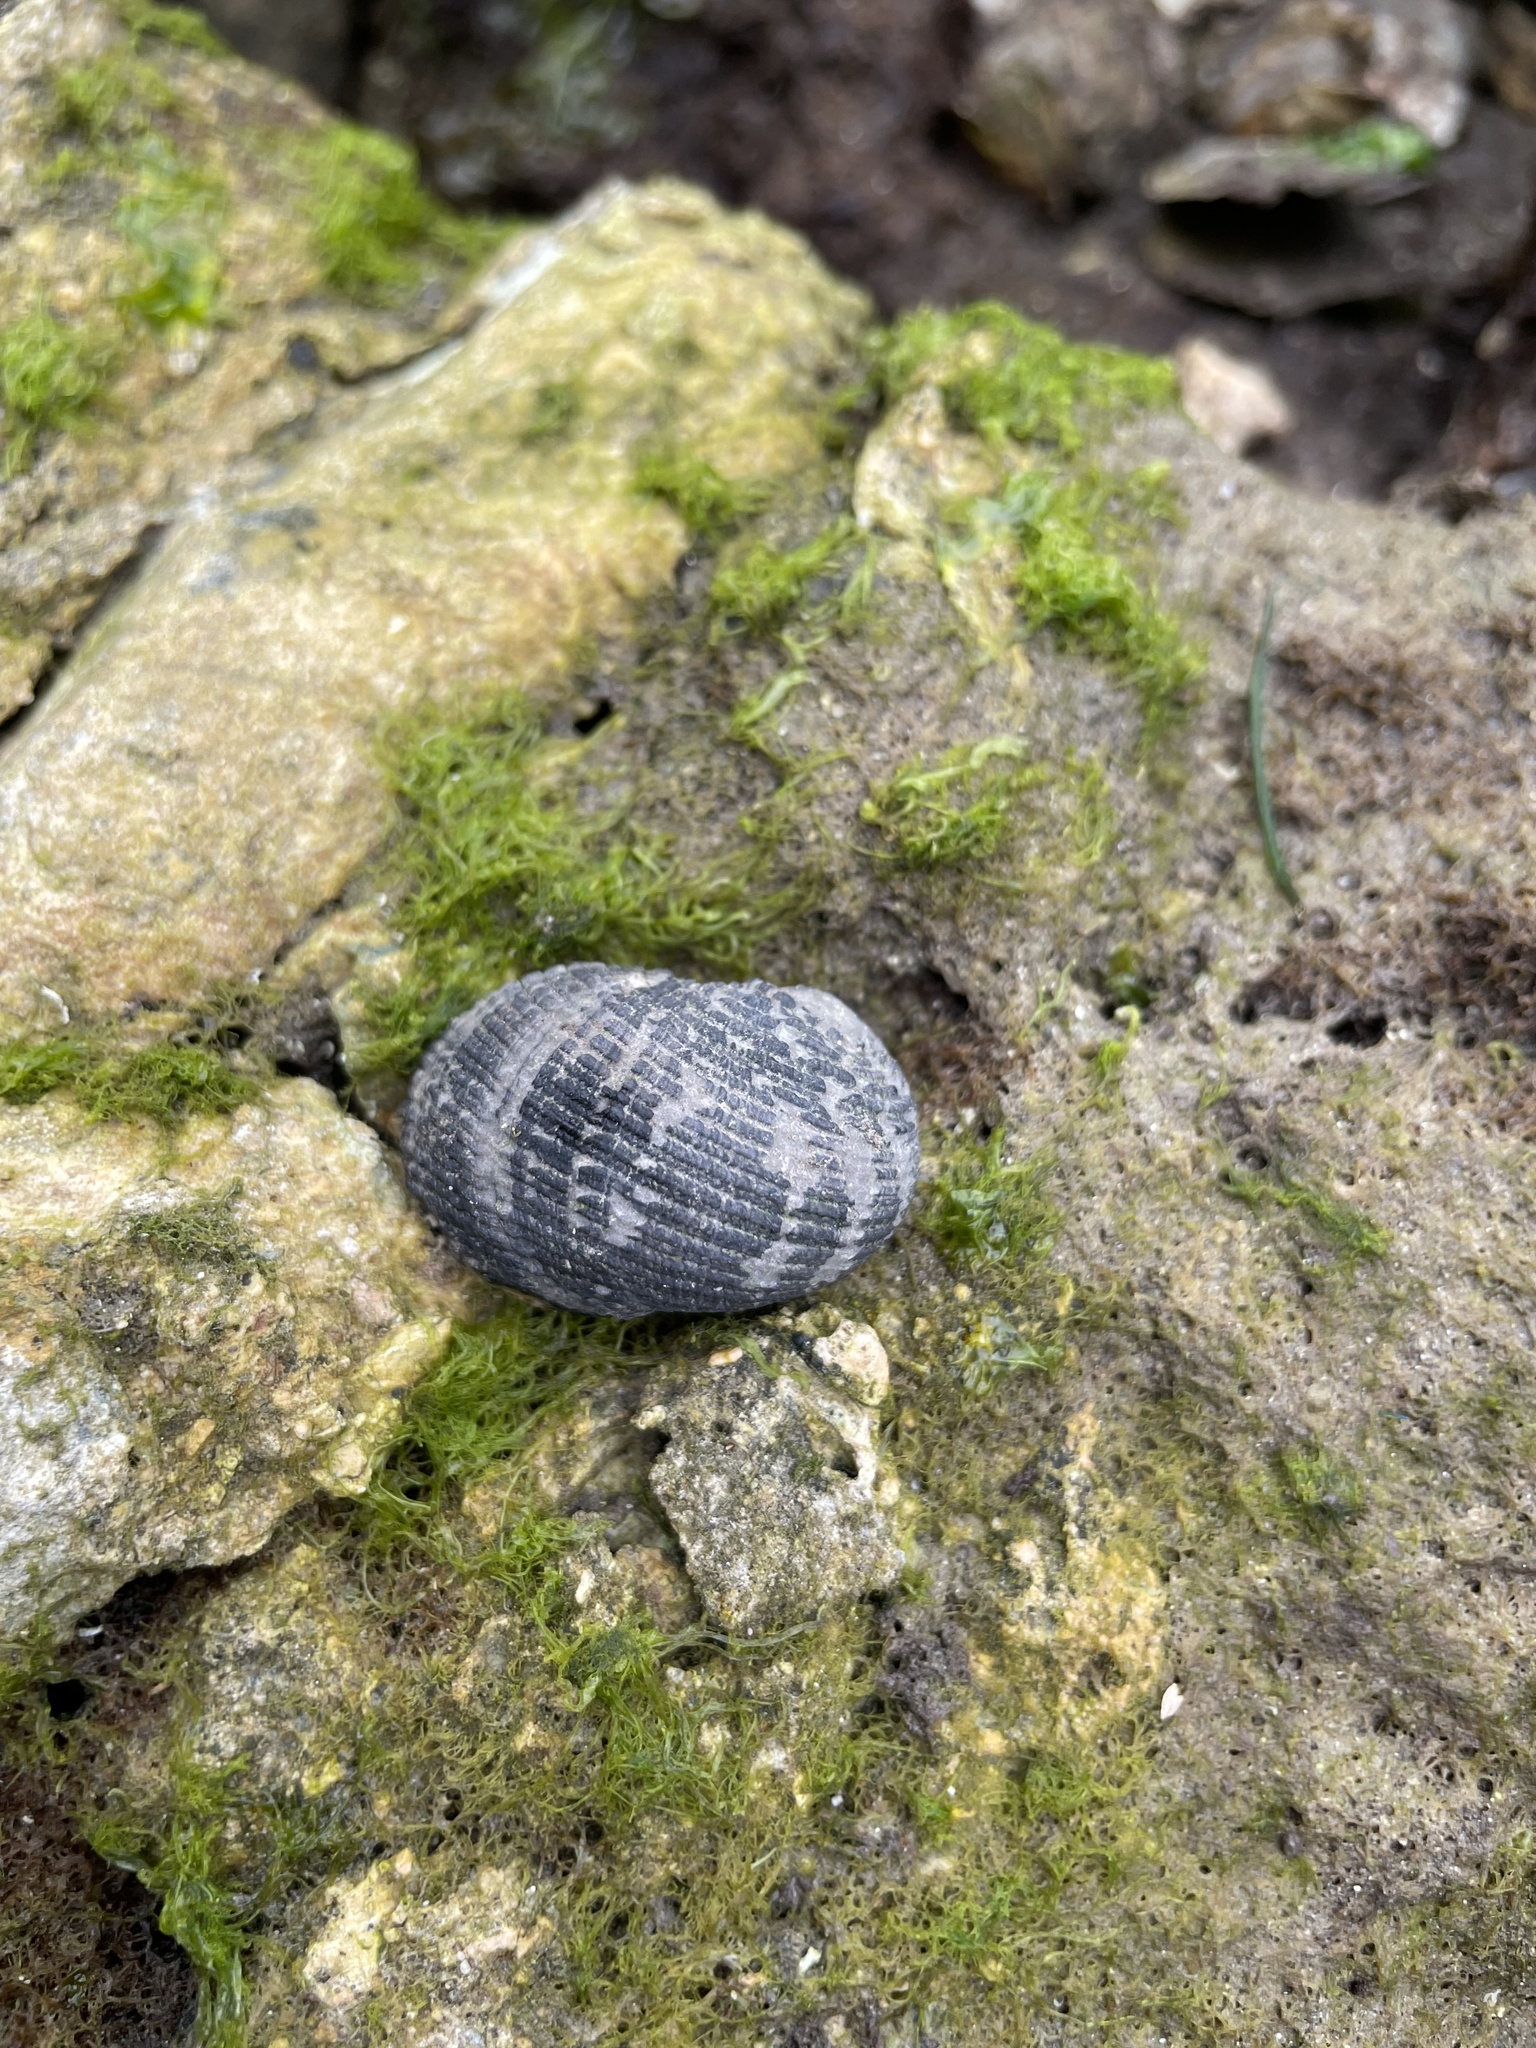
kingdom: Animalia
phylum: Mollusca
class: Gastropoda
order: Cycloneritida
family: Neritidae
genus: Nerita
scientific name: Nerita fulgurans
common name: Antillean nerite
